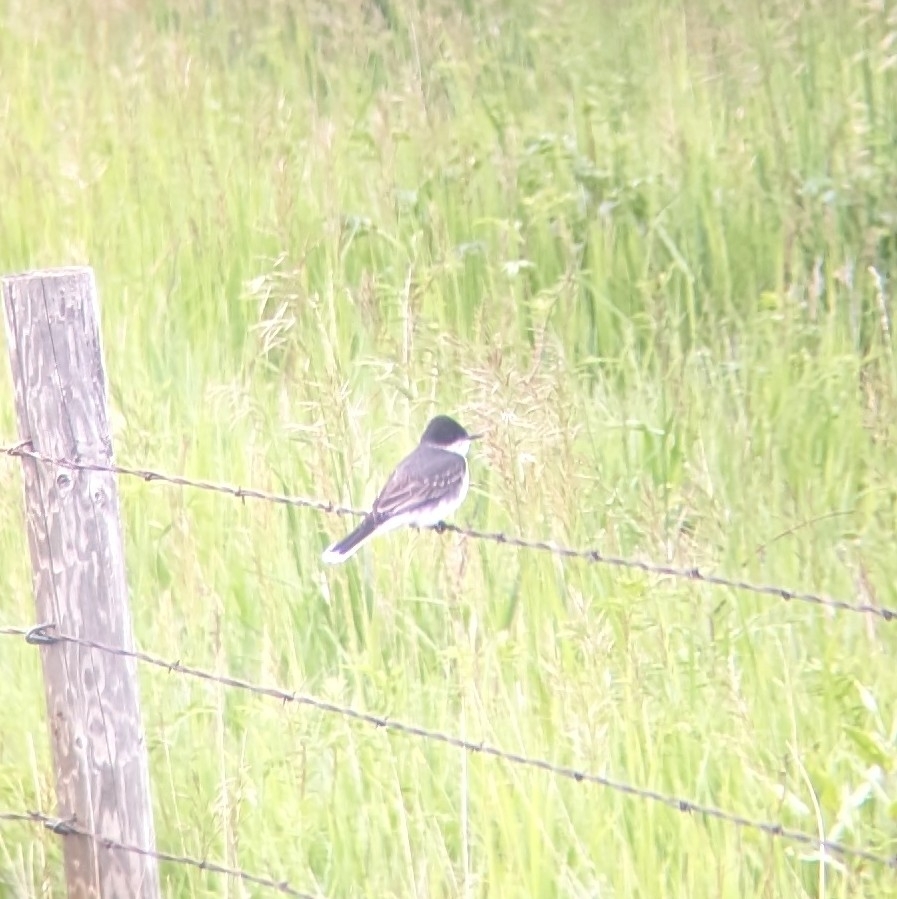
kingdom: Animalia
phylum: Chordata
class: Aves
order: Passeriformes
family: Tyrannidae
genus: Tyrannus
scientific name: Tyrannus tyrannus
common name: Eastern kingbird
